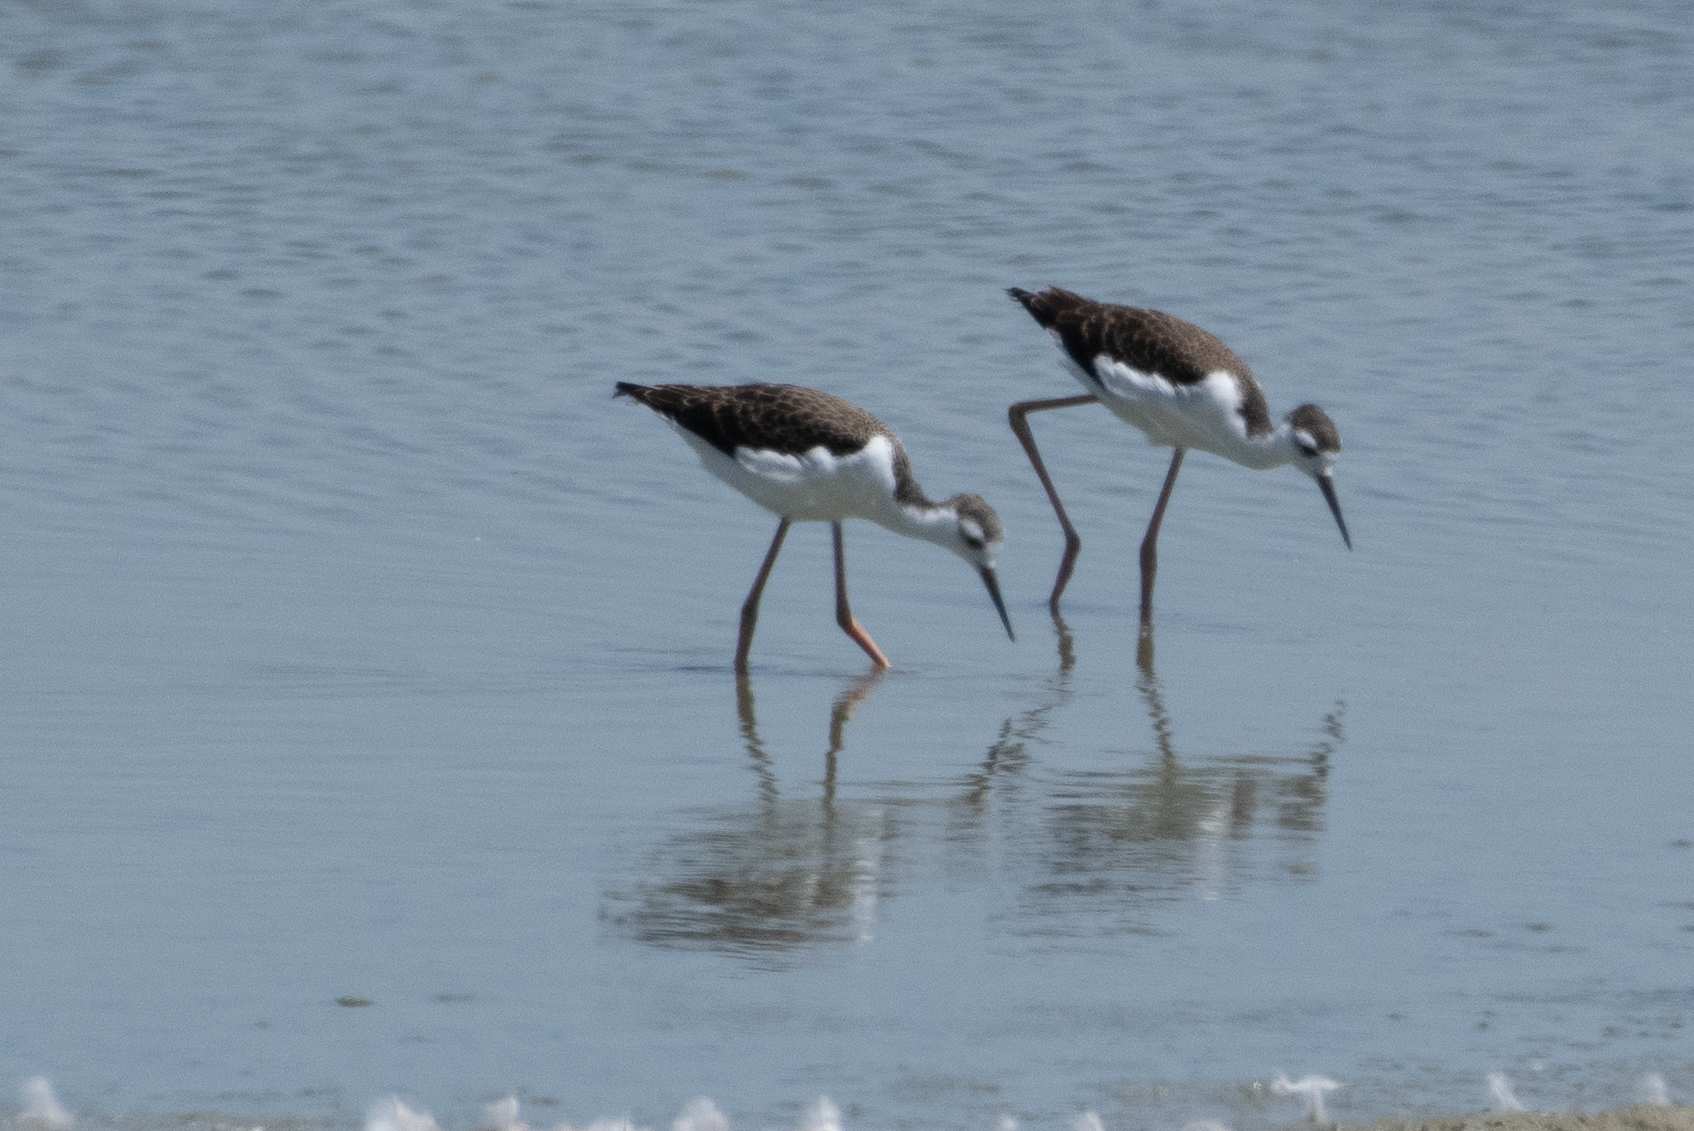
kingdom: Animalia
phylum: Chordata
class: Aves
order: Charadriiformes
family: Recurvirostridae
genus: Himantopus
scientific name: Himantopus mexicanus
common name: Black-necked stilt
